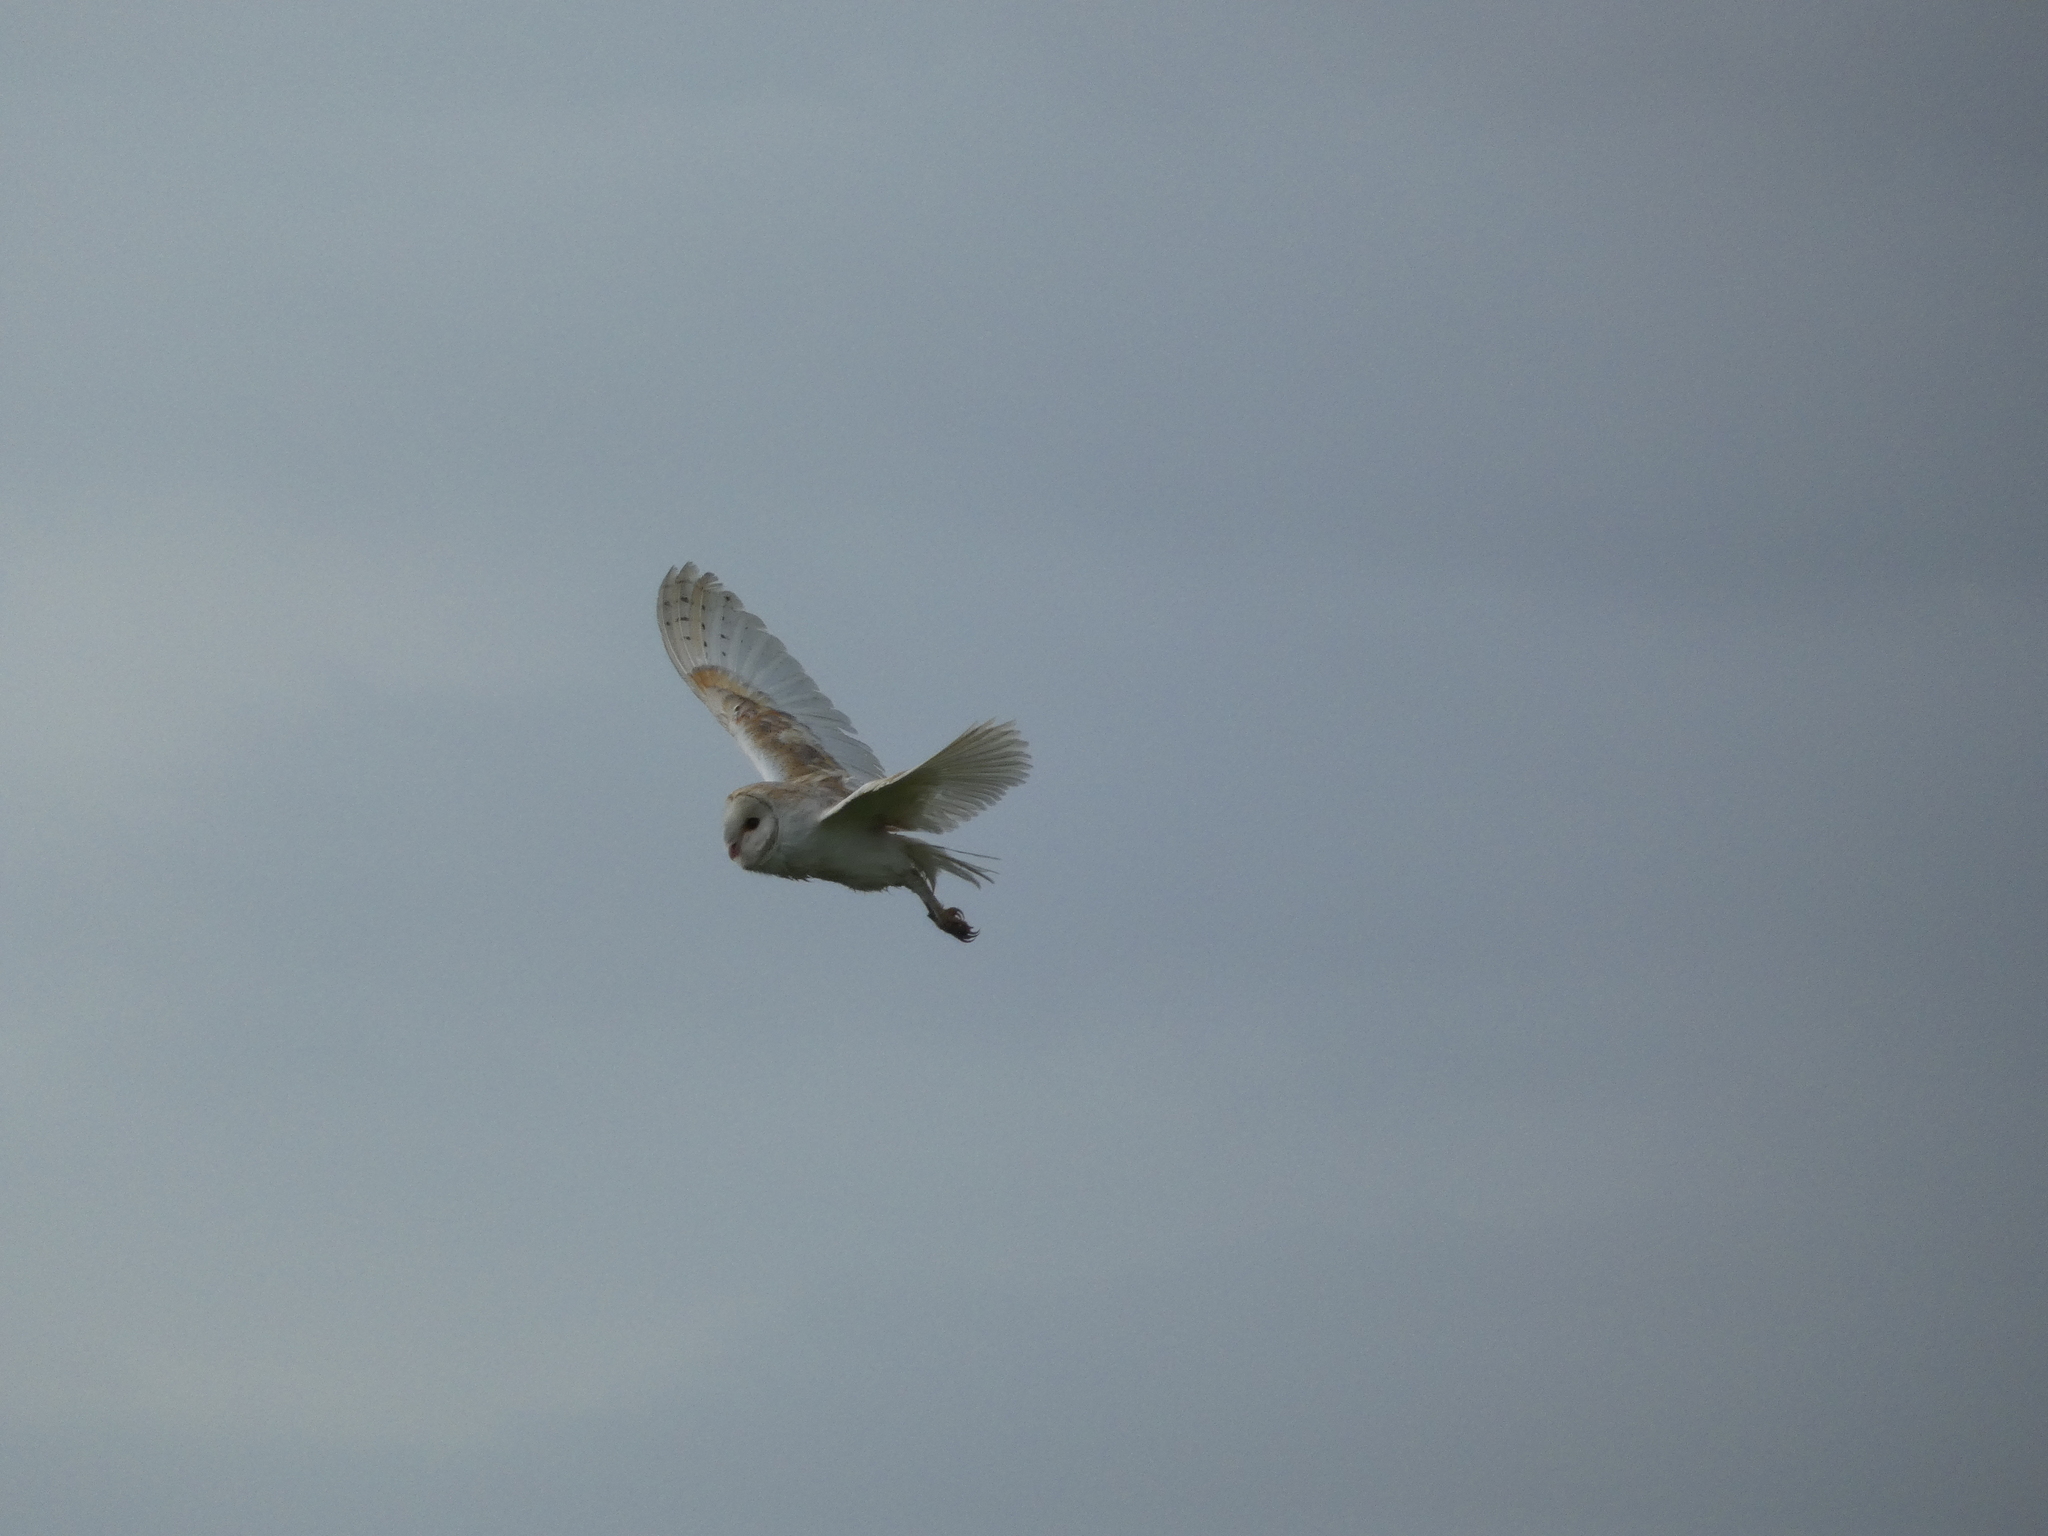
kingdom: Animalia
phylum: Chordata
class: Aves
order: Strigiformes
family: Tytonidae
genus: Tyto
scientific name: Tyto alba
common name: Barn owl
